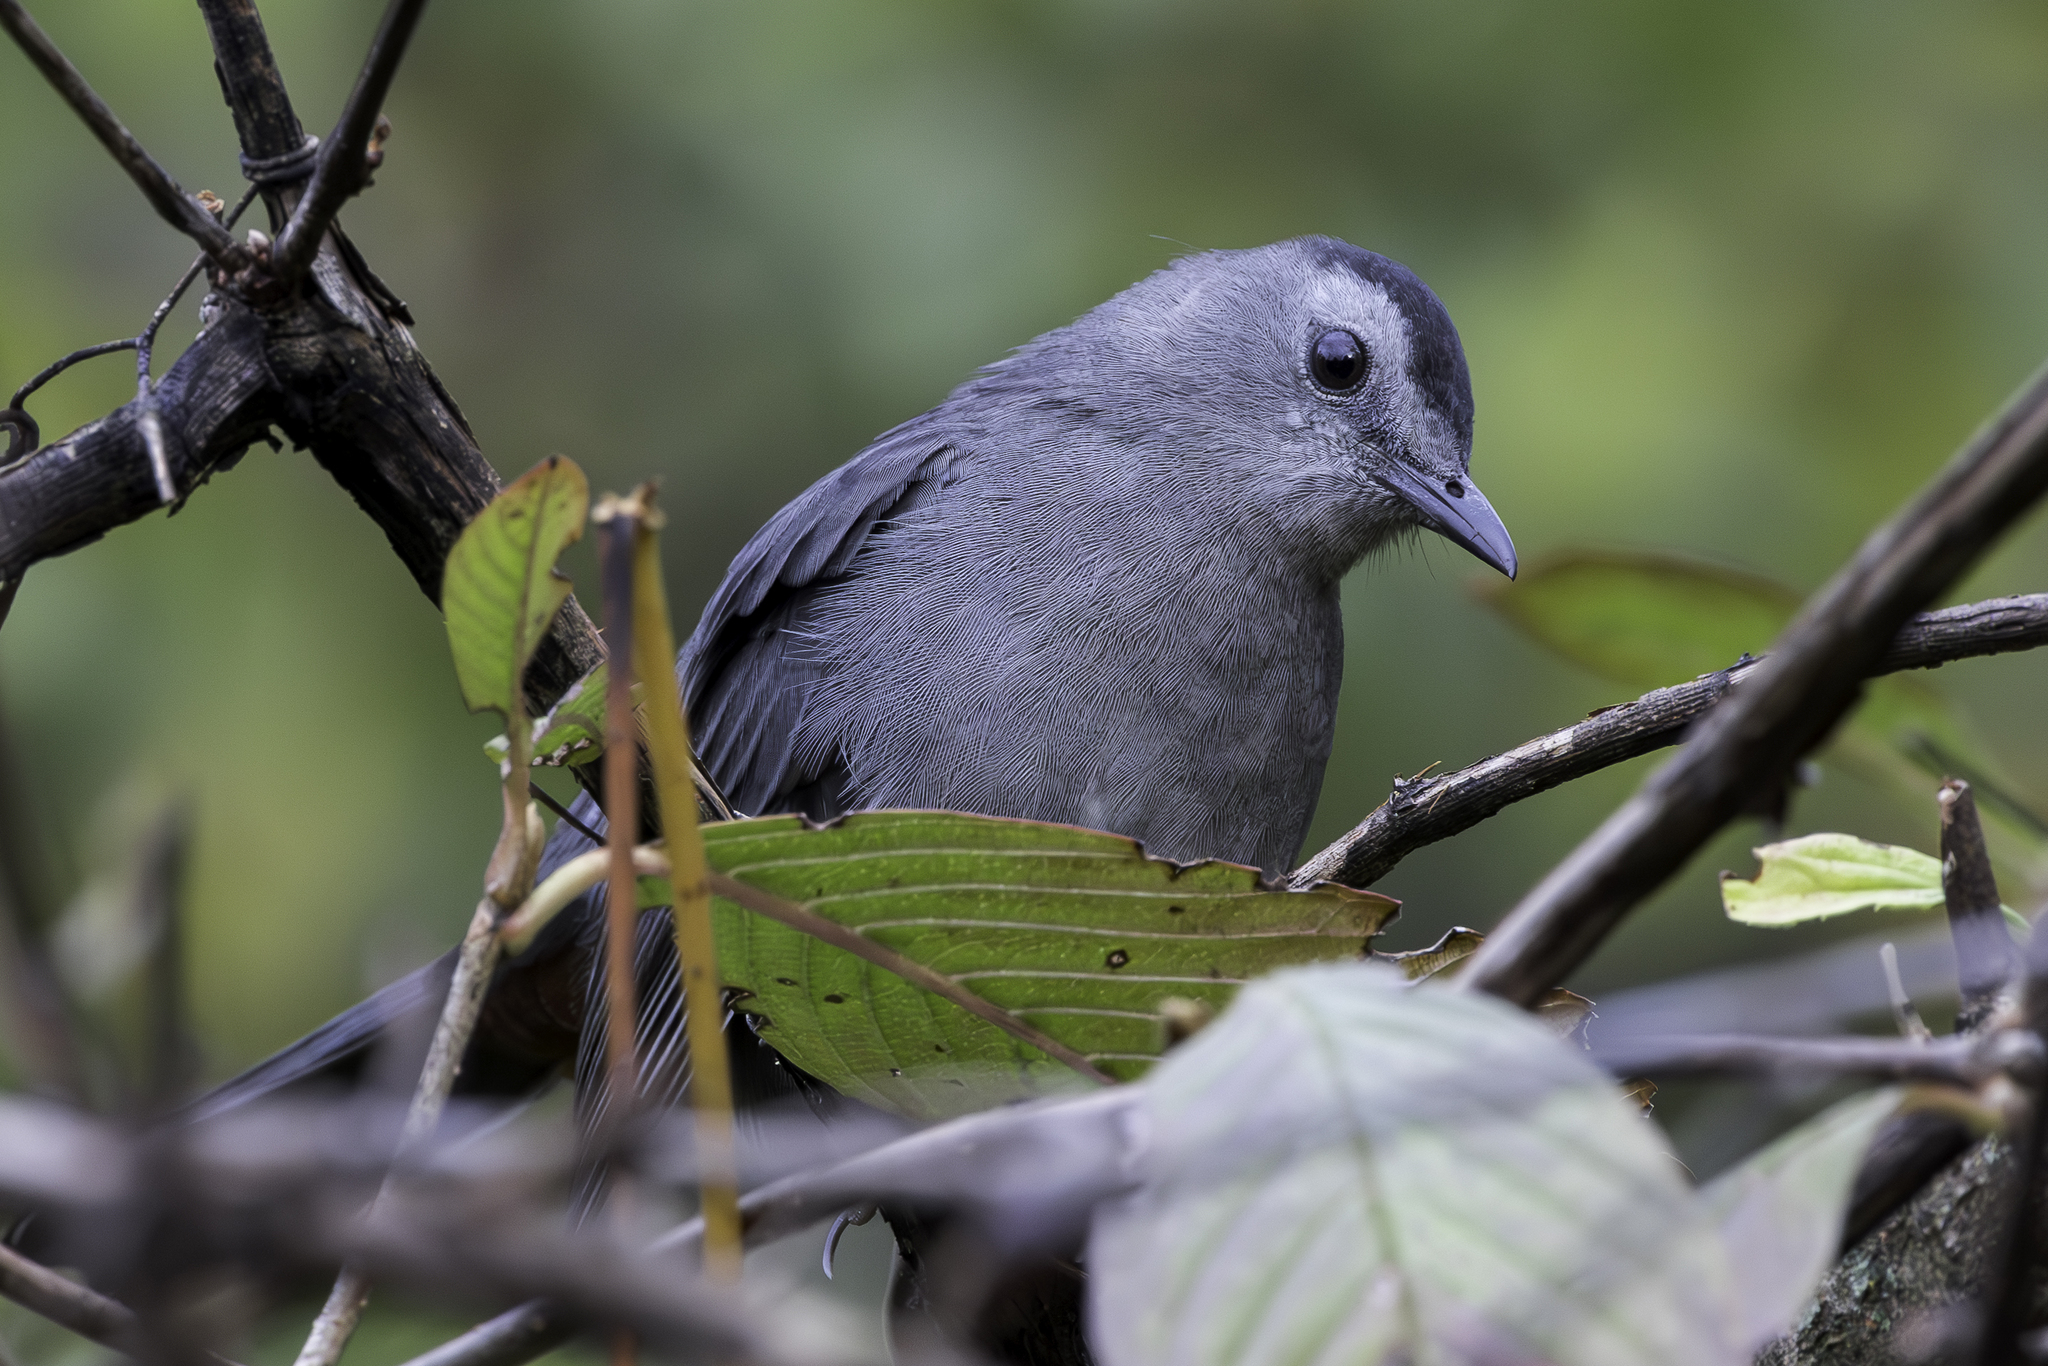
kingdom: Animalia
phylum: Chordata
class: Aves
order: Passeriformes
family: Mimidae
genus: Dumetella
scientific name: Dumetella carolinensis
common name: Gray catbird
